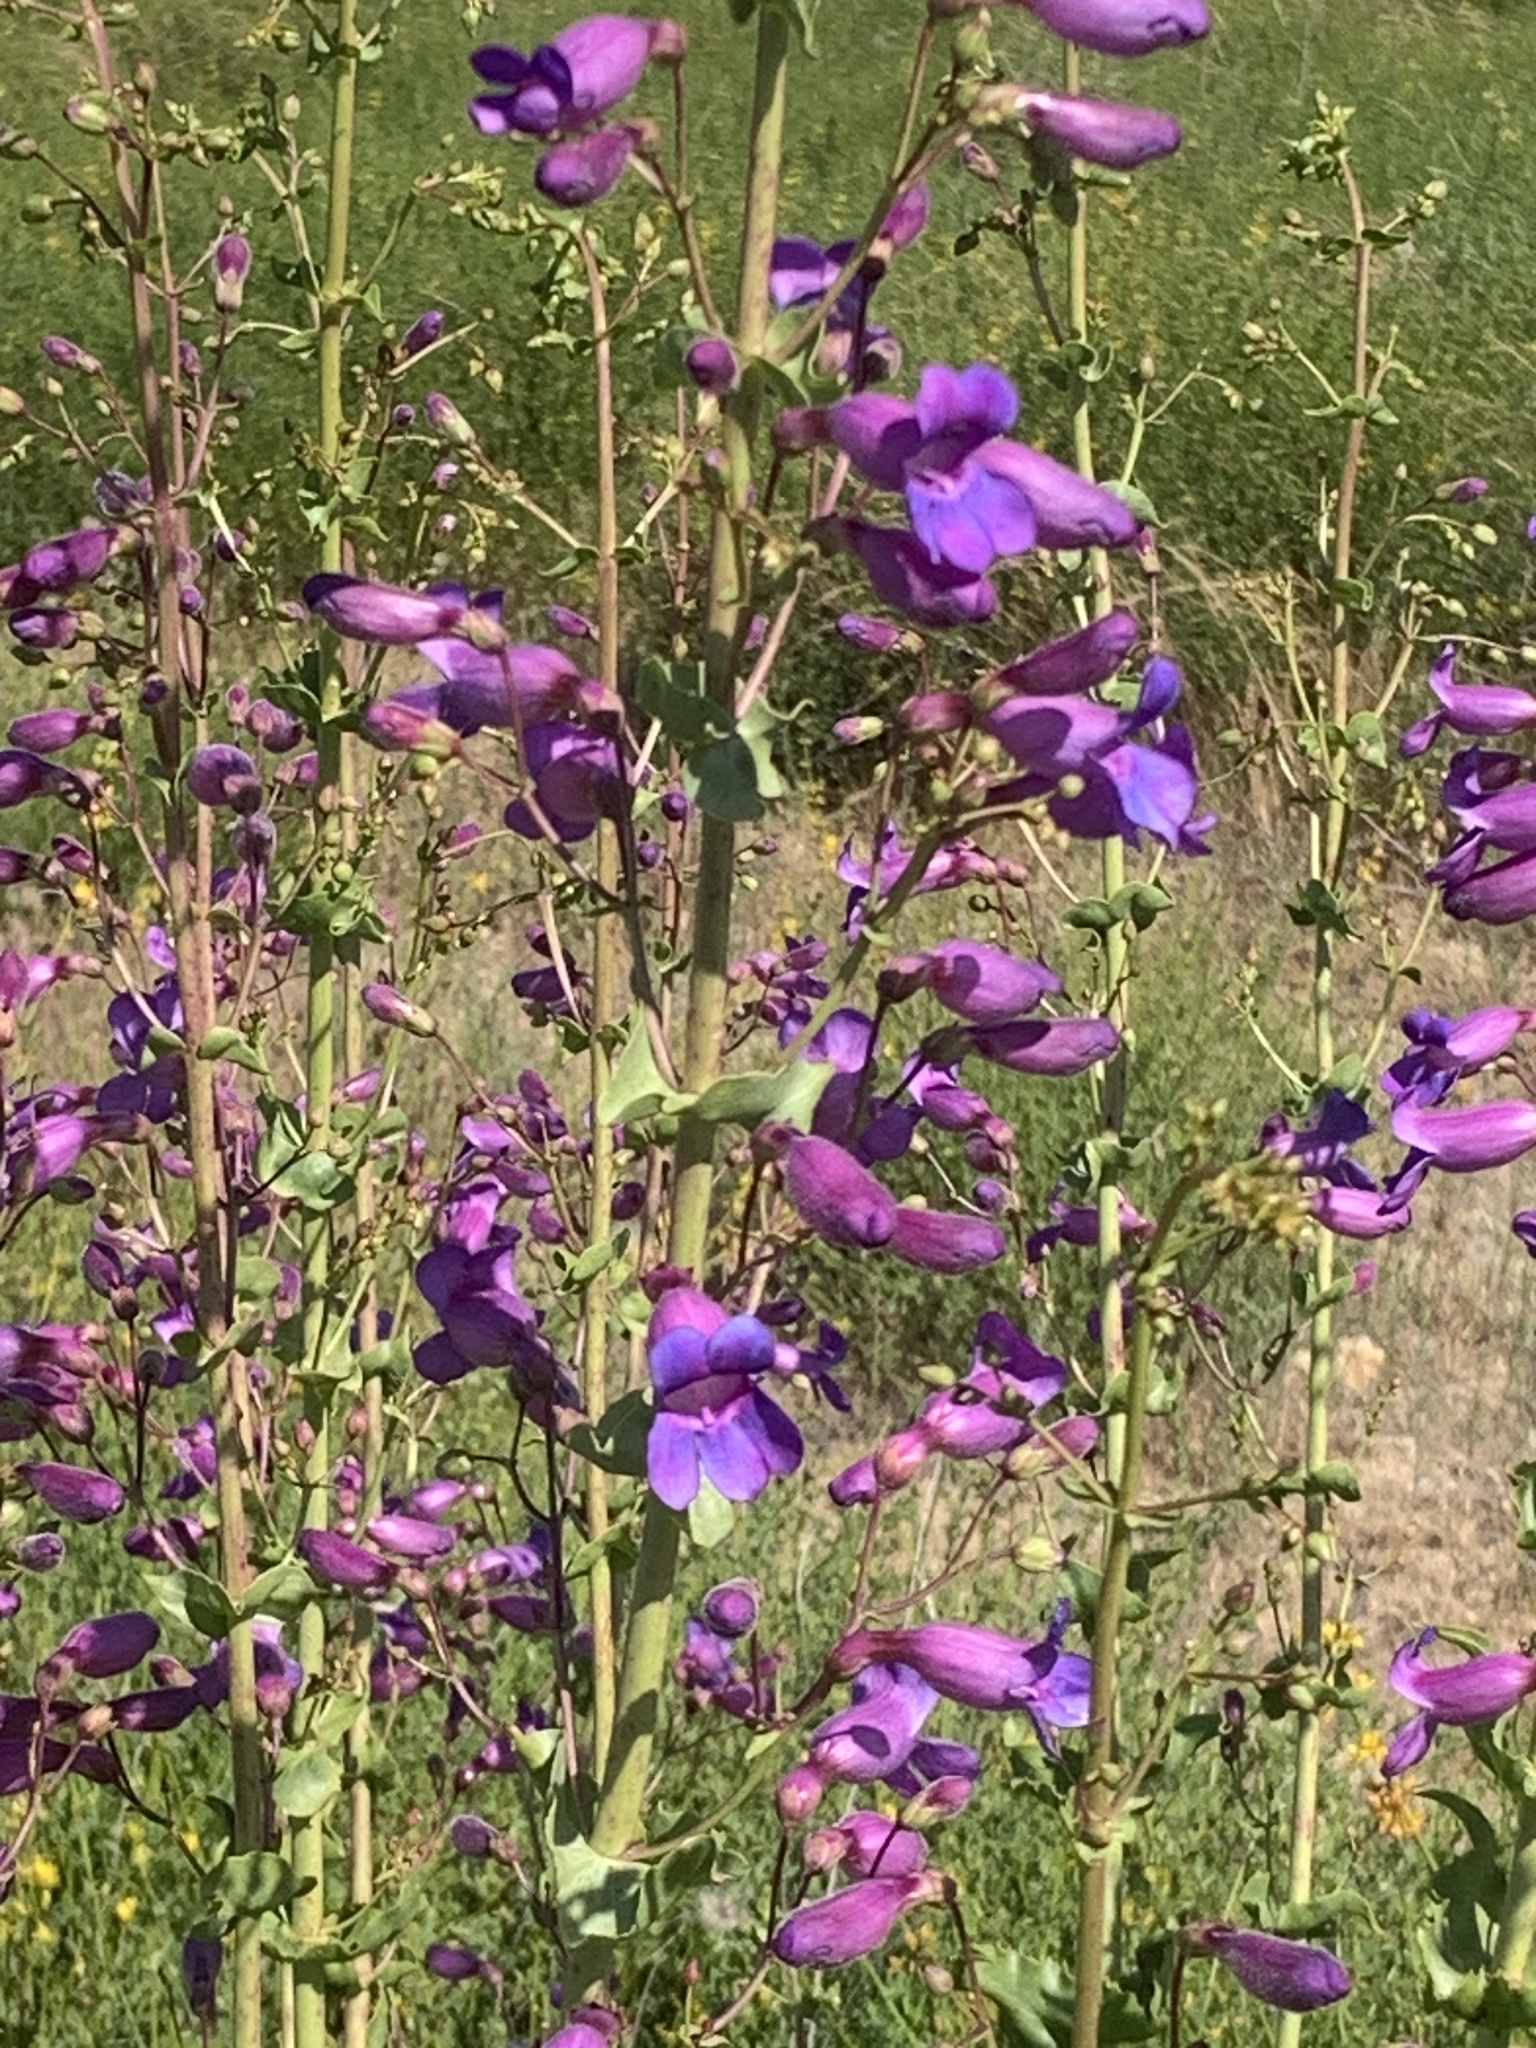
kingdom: Plantae
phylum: Tracheophyta
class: Magnoliopsida
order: Lamiales
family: Plantaginaceae
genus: Penstemon
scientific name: Penstemon spectabilis
